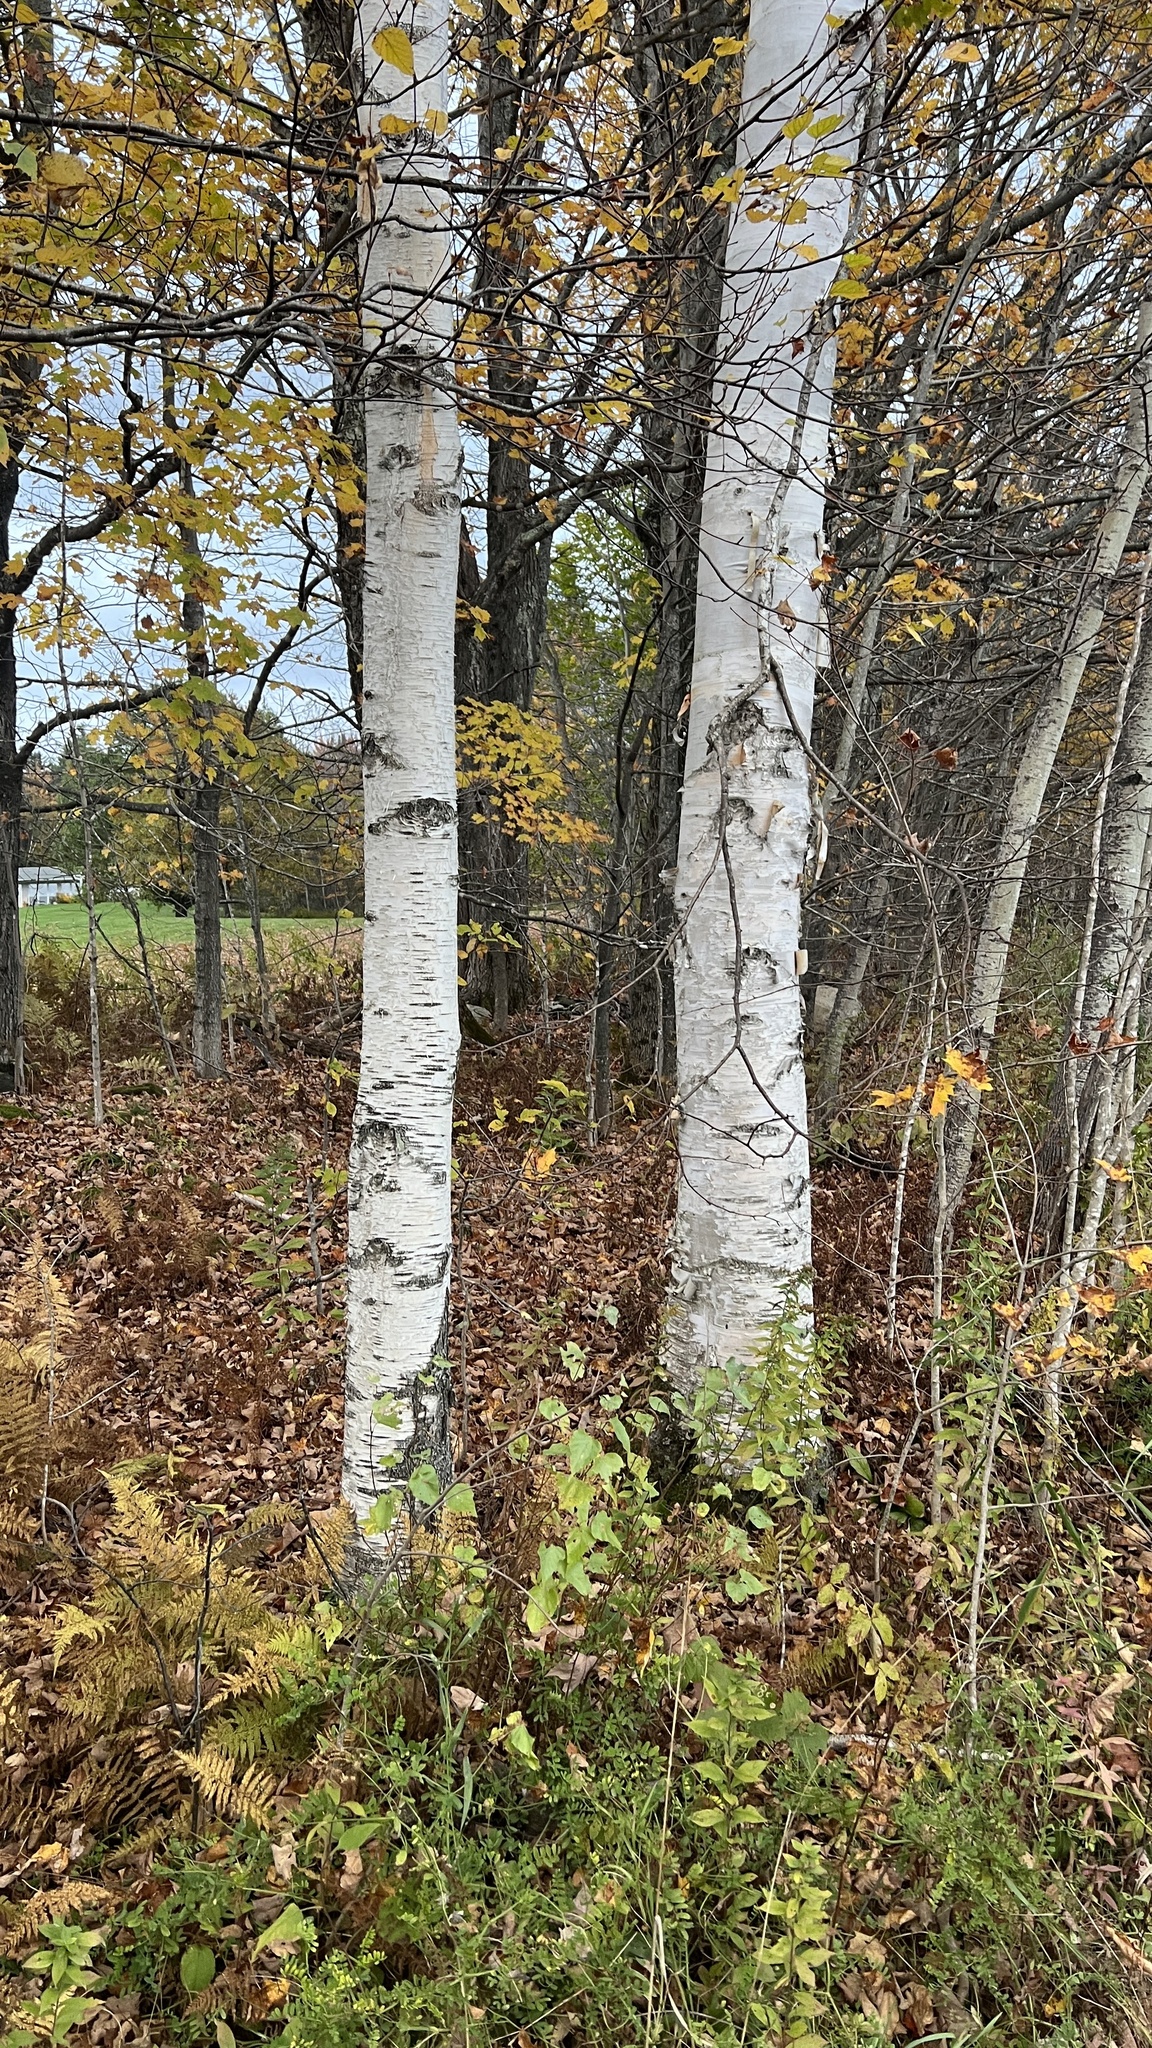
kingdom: Plantae
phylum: Tracheophyta
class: Magnoliopsida
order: Fagales
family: Betulaceae
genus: Betula
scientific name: Betula papyrifera
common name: Paper birch
